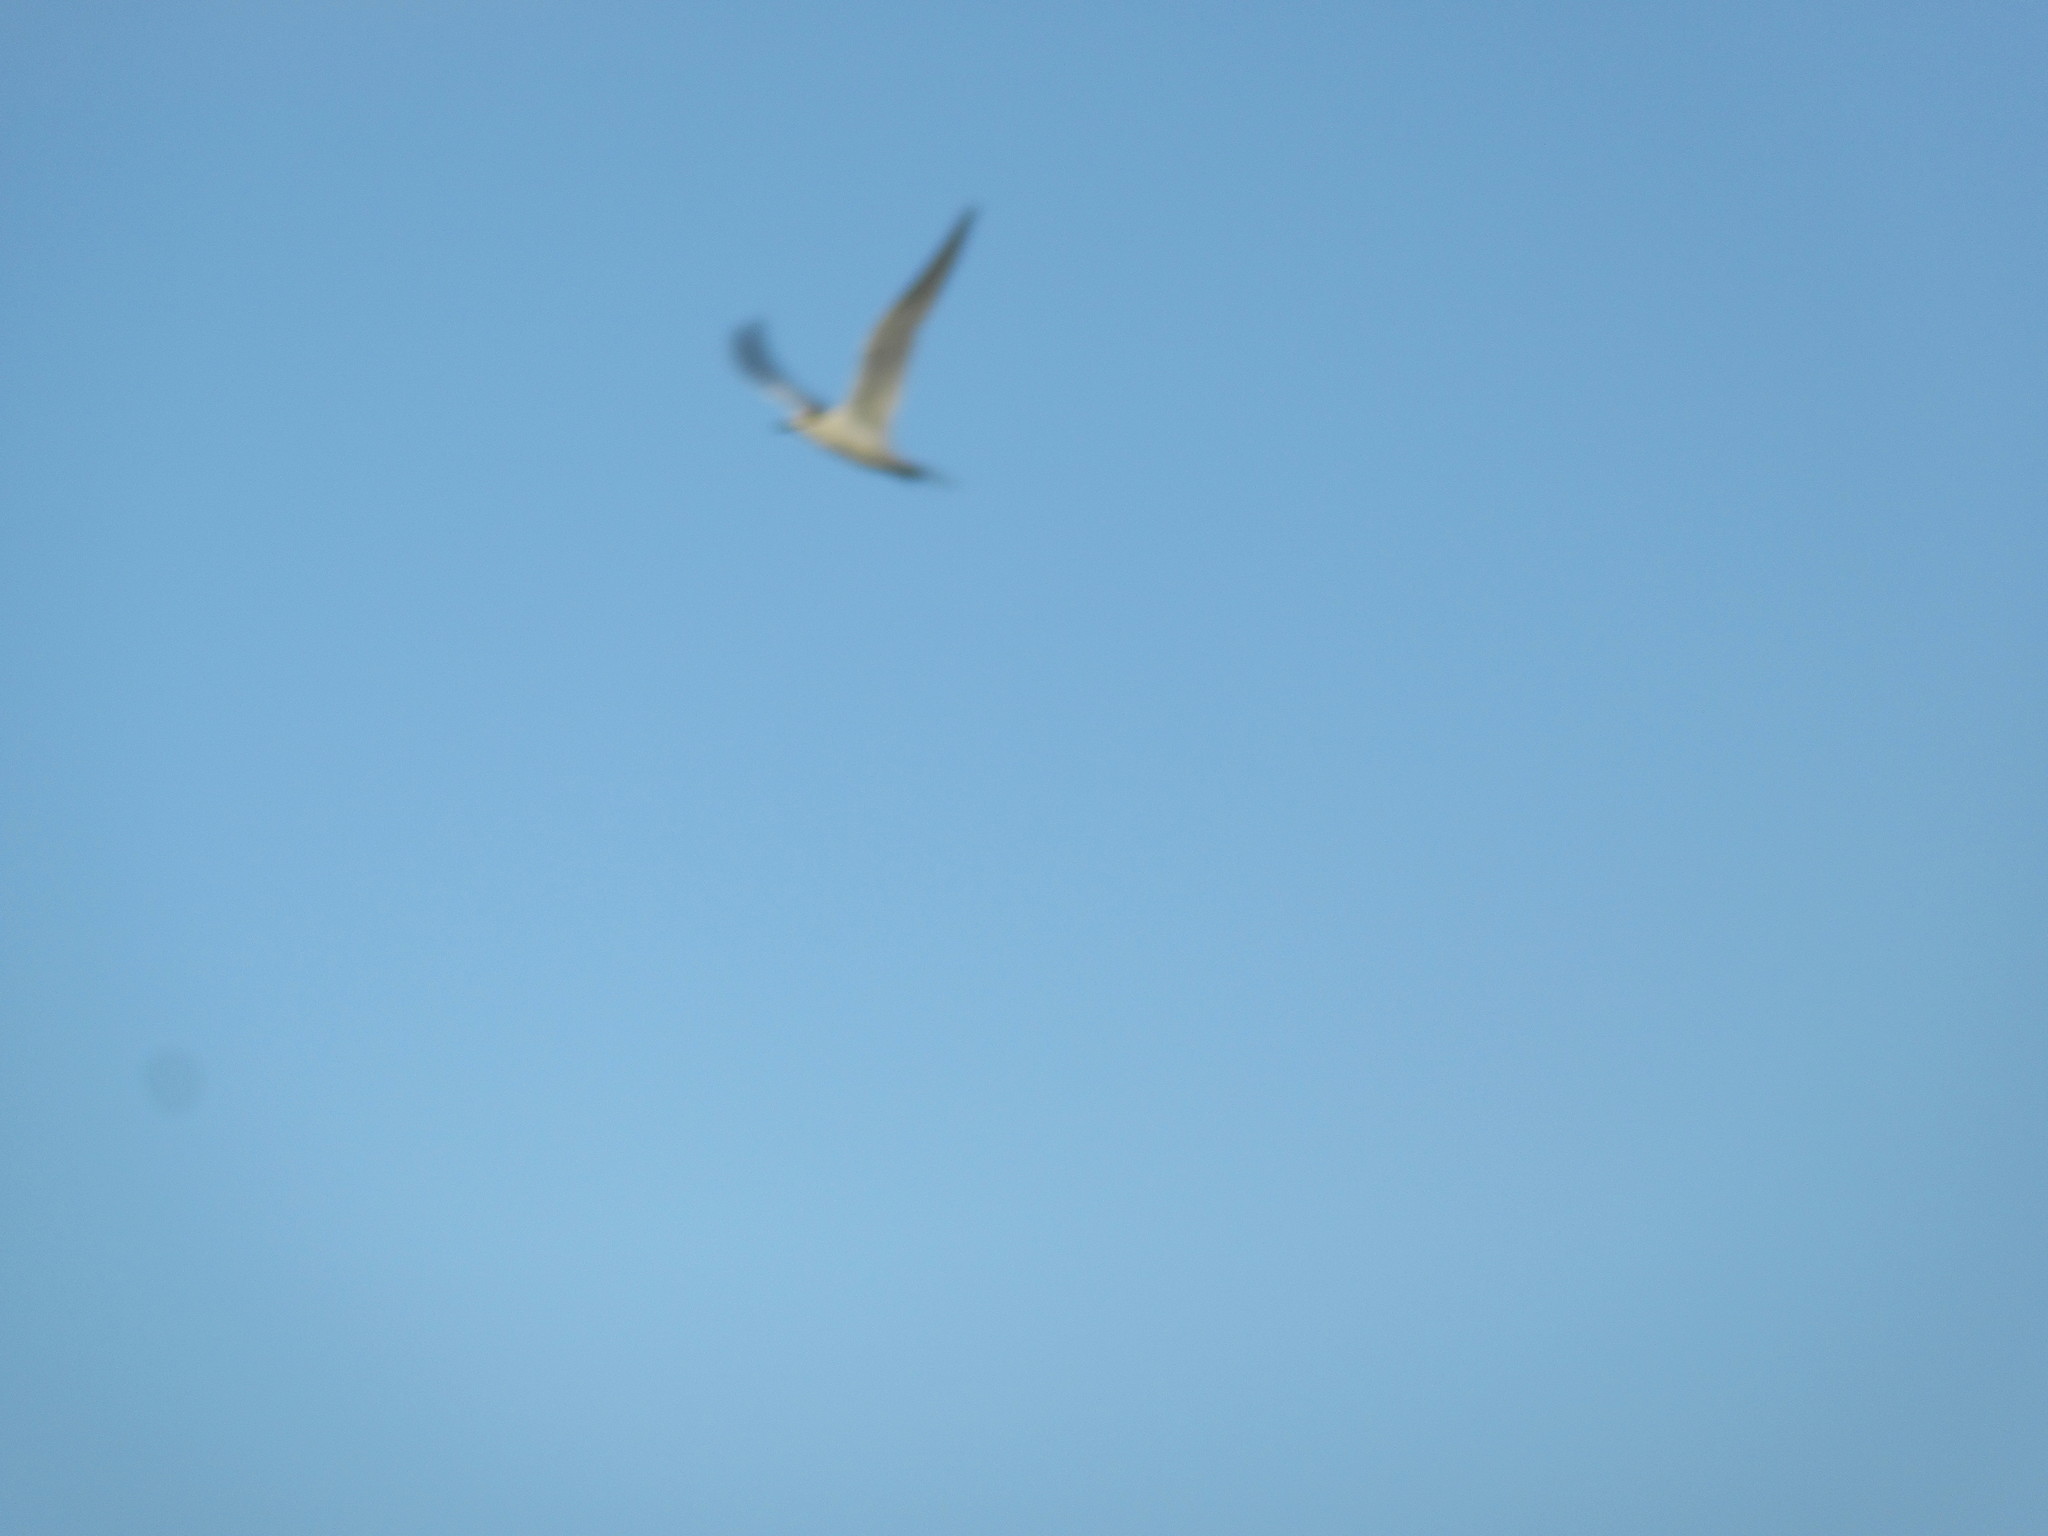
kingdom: Animalia
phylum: Chordata
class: Aves
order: Charadriiformes
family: Laridae
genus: Sterna
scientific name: Sterna forsteri
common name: Forster's tern
